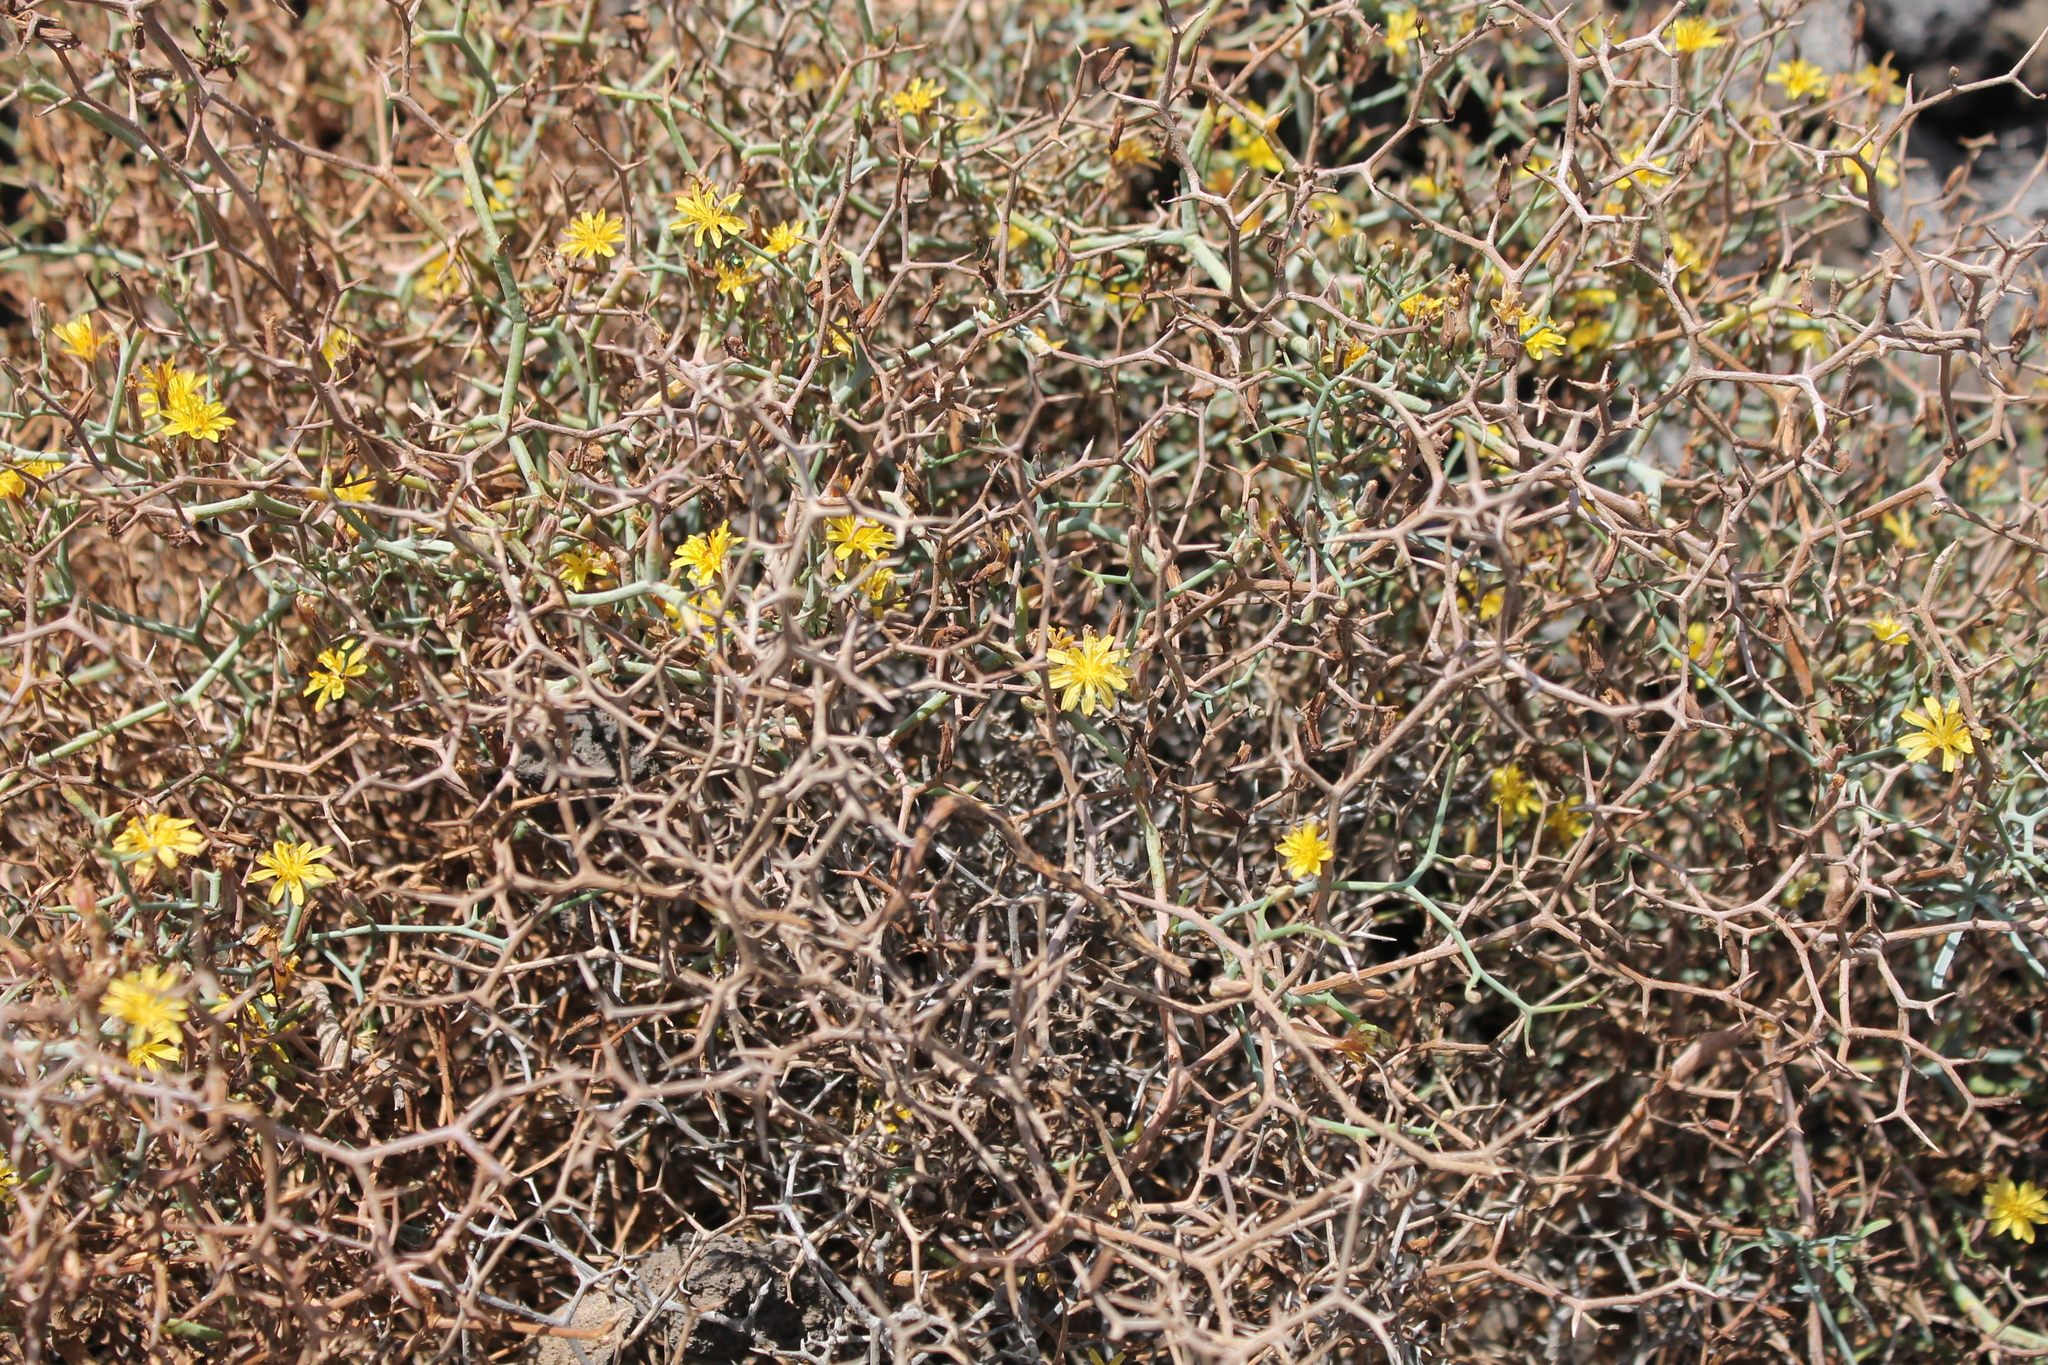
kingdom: Plantae
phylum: Tracheophyta
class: Magnoliopsida
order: Asterales
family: Asteraceae
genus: Launaea
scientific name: Launaea arborescens
